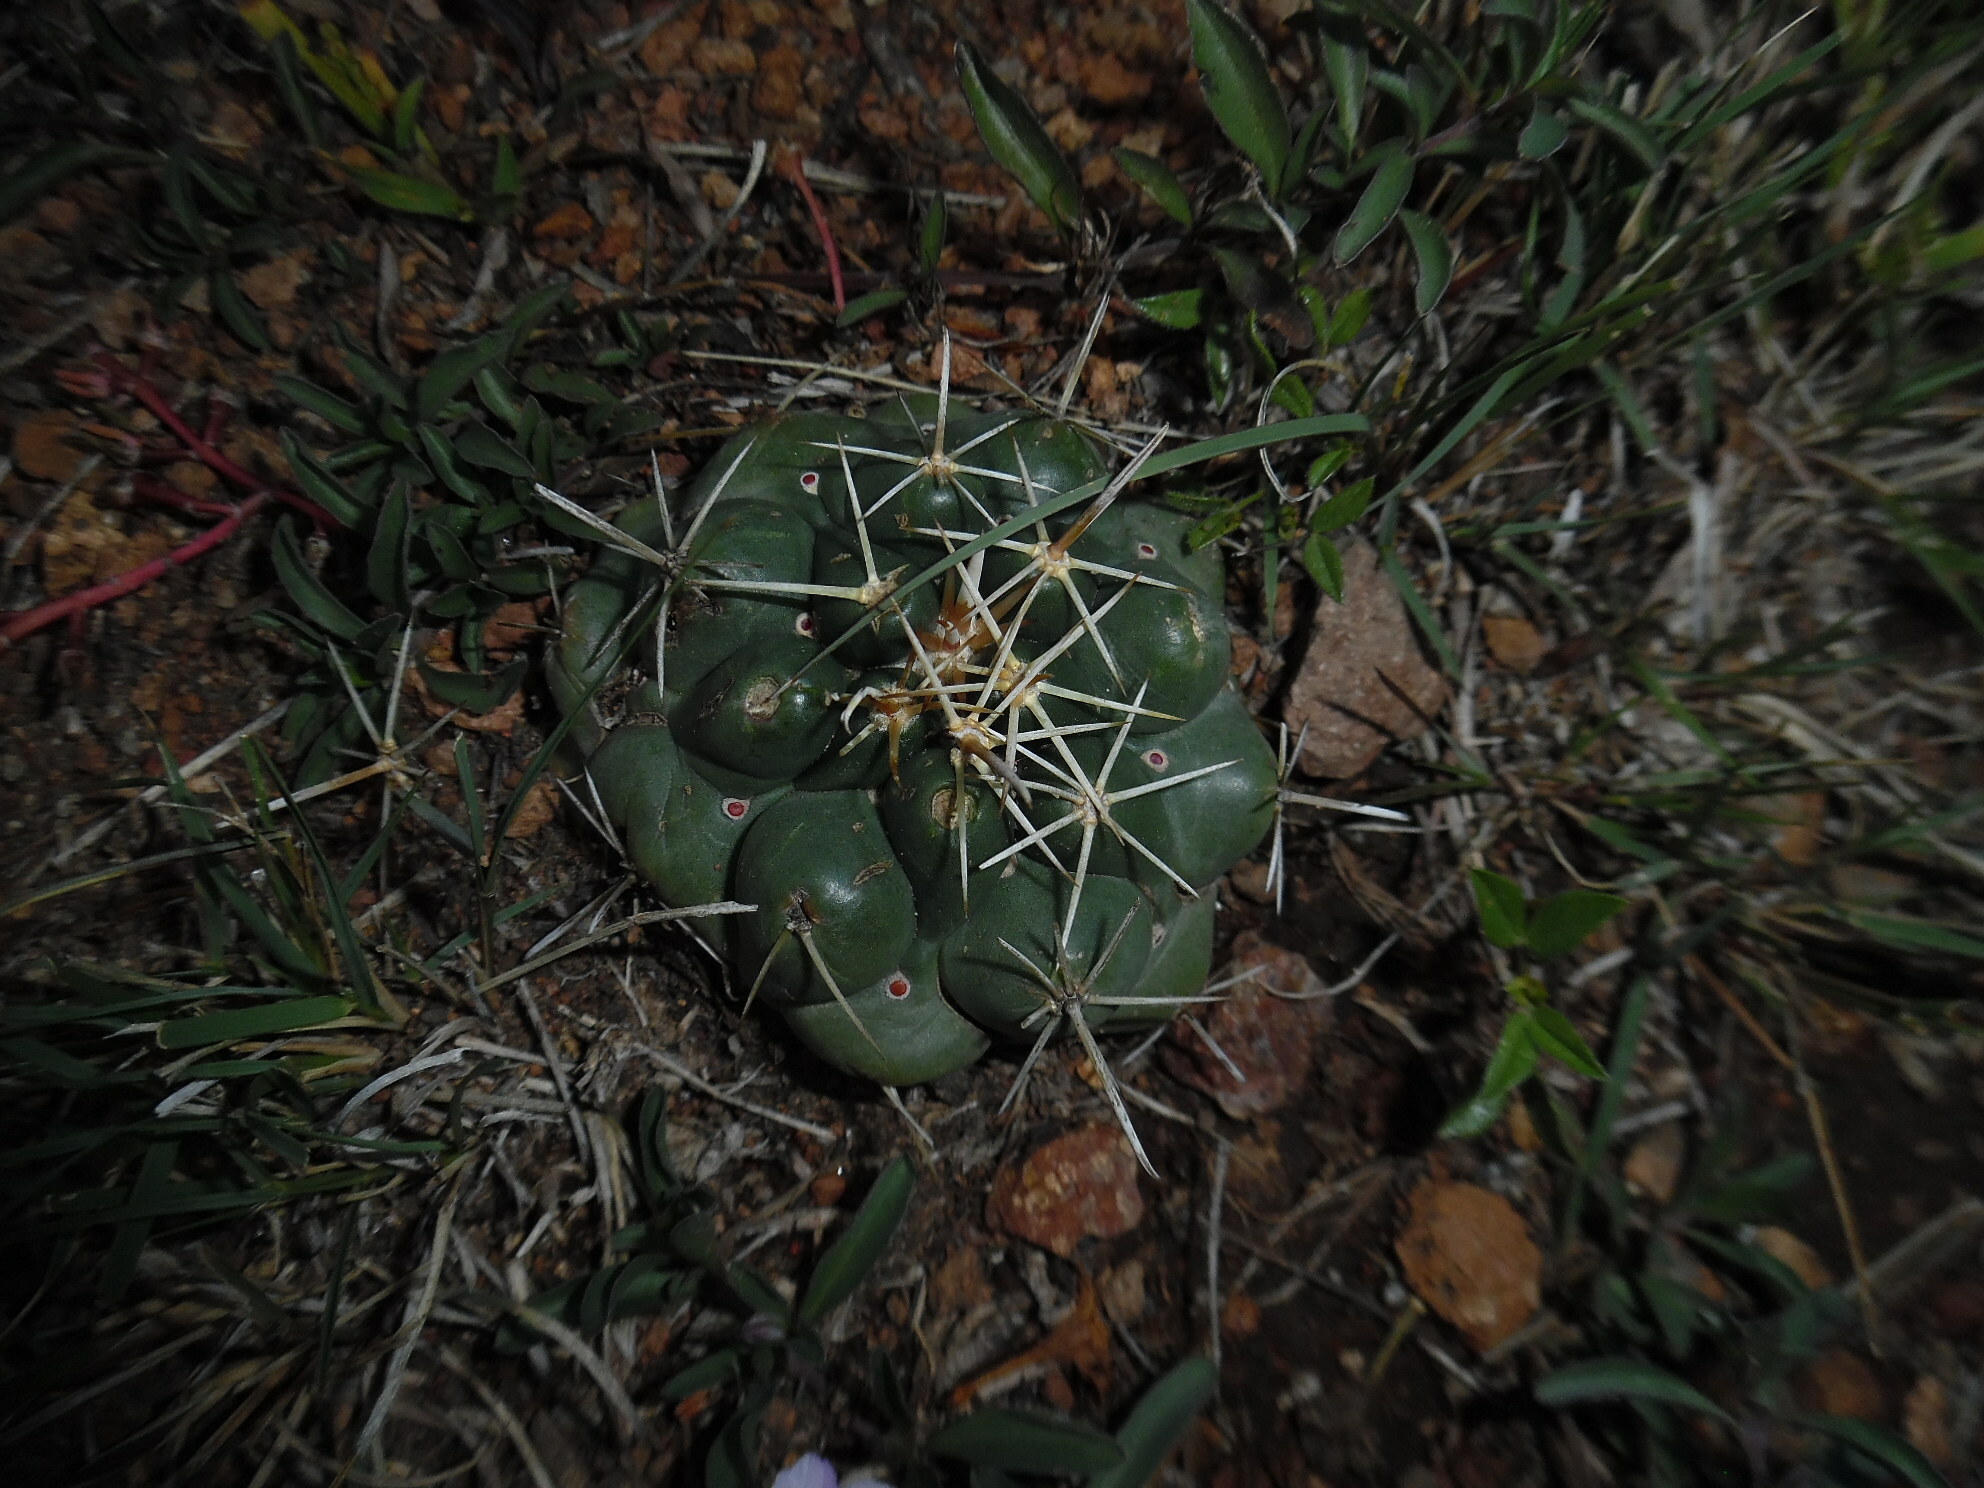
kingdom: Plantae
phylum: Tracheophyta
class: Magnoliopsida
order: Caryophyllales
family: Cactaceae
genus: Coryphantha
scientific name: Coryphantha ottonis
